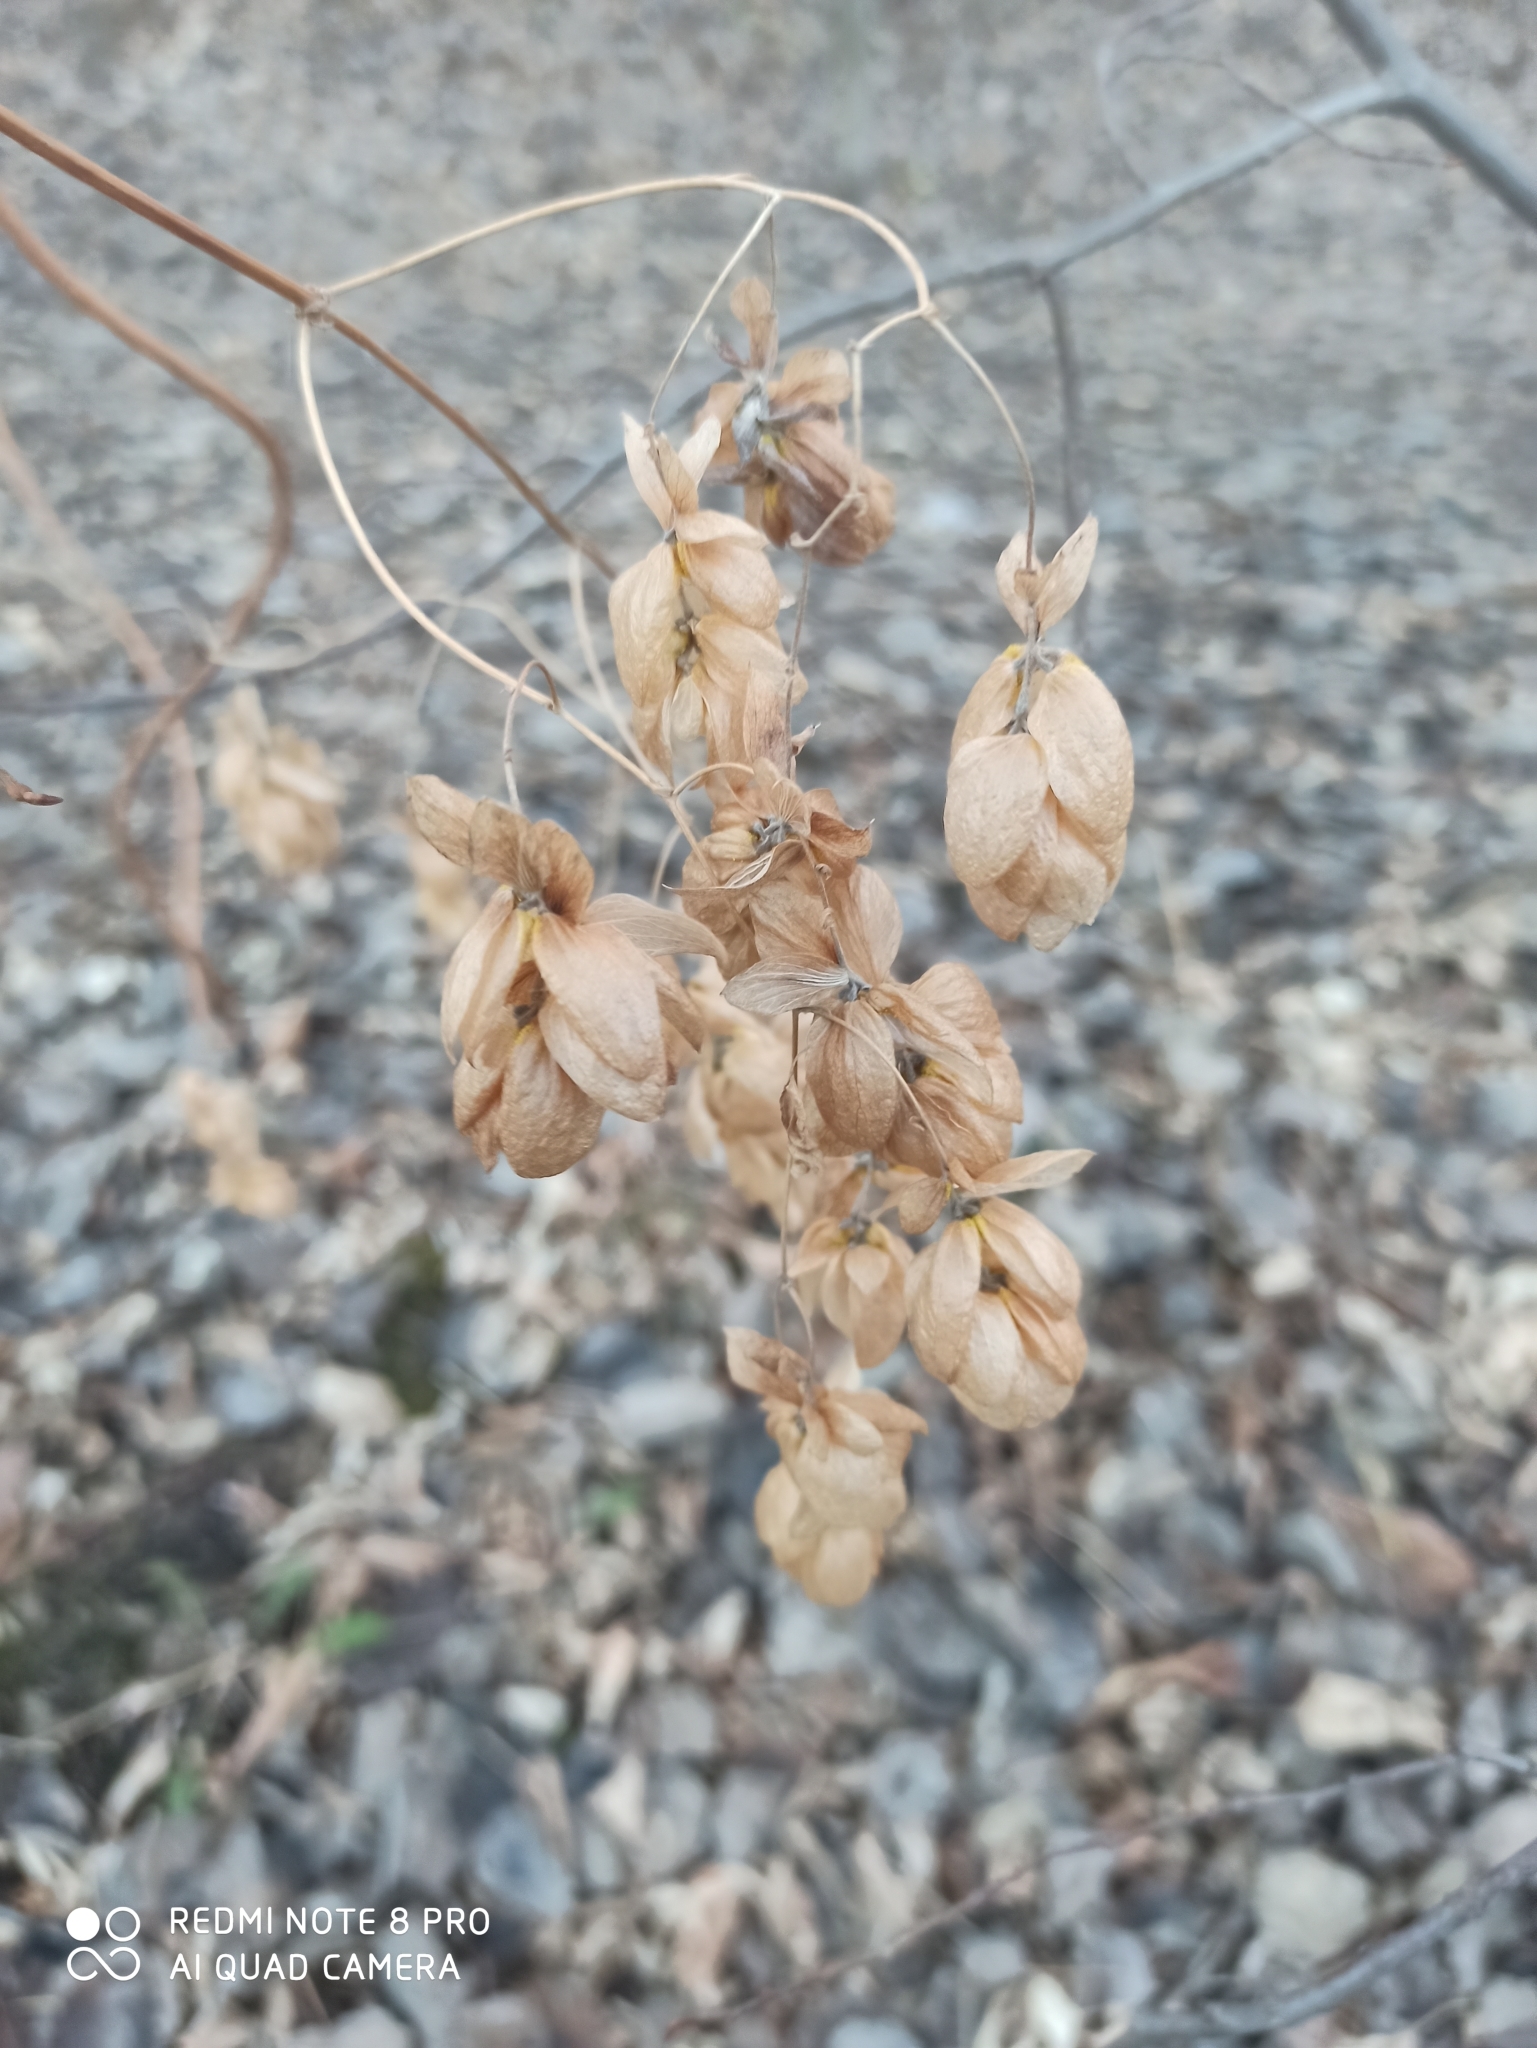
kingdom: Plantae
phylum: Tracheophyta
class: Magnoliopsida
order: Rosales
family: Cannabaceae
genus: Humulus
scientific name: Humulus lupulus
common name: Hop
